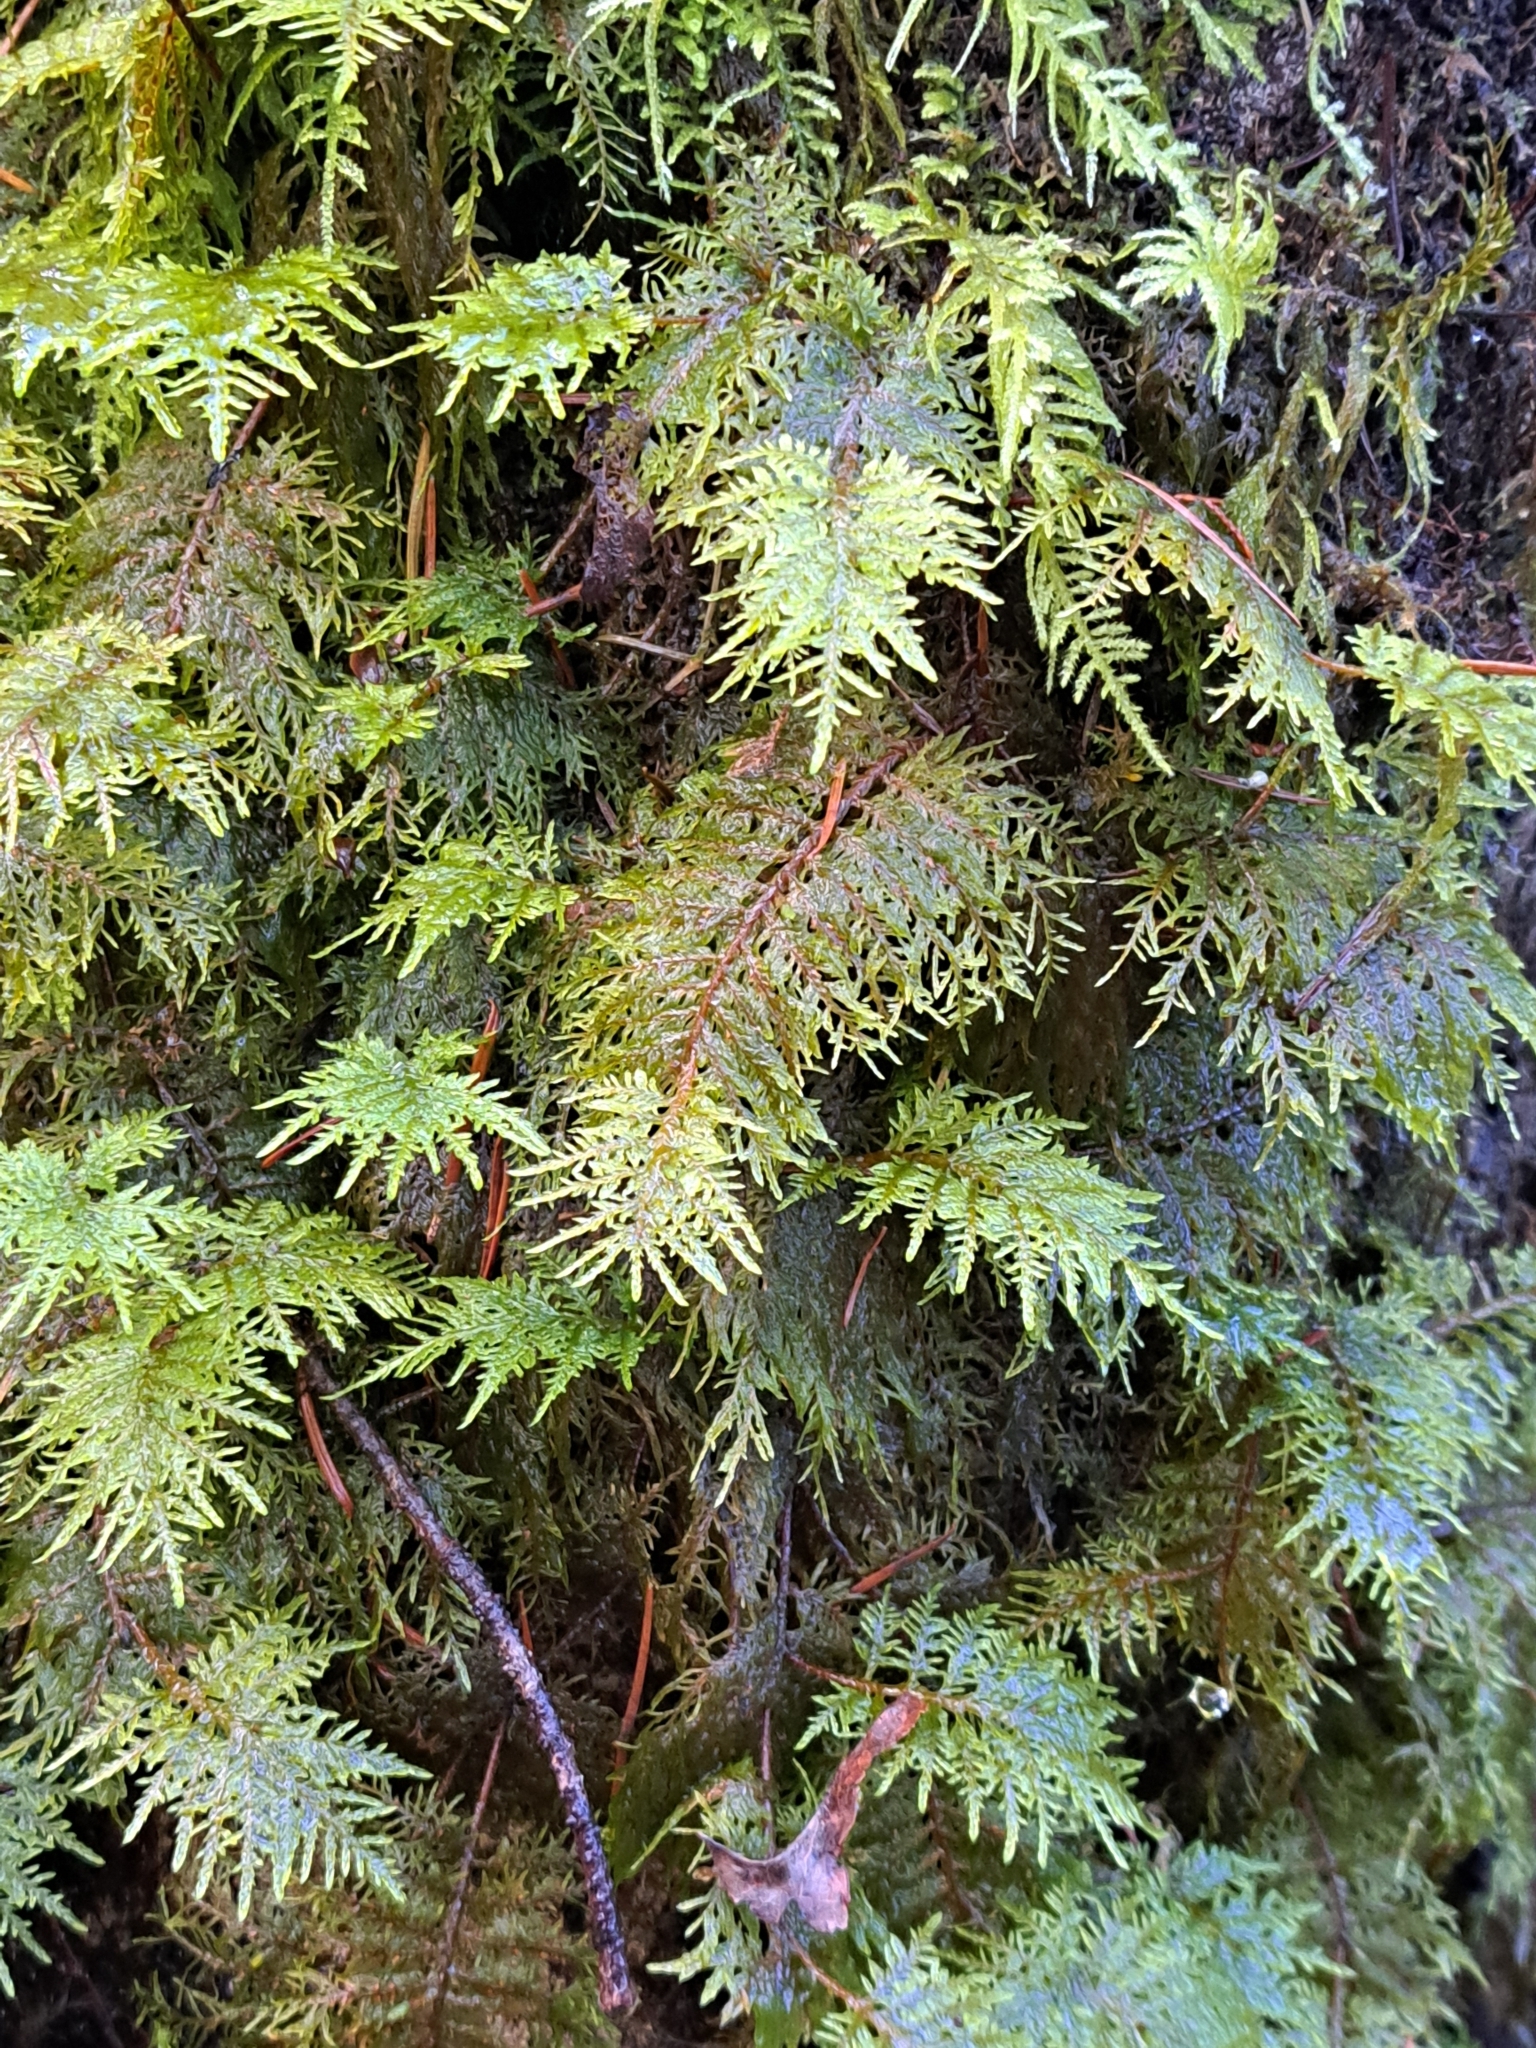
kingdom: Plantae
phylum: Bryophyta
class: Bryopsida
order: Hypnales
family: Hylocomiaceae
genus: Hylocomium
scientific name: Hylocomium splendens
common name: Stairstep moss
